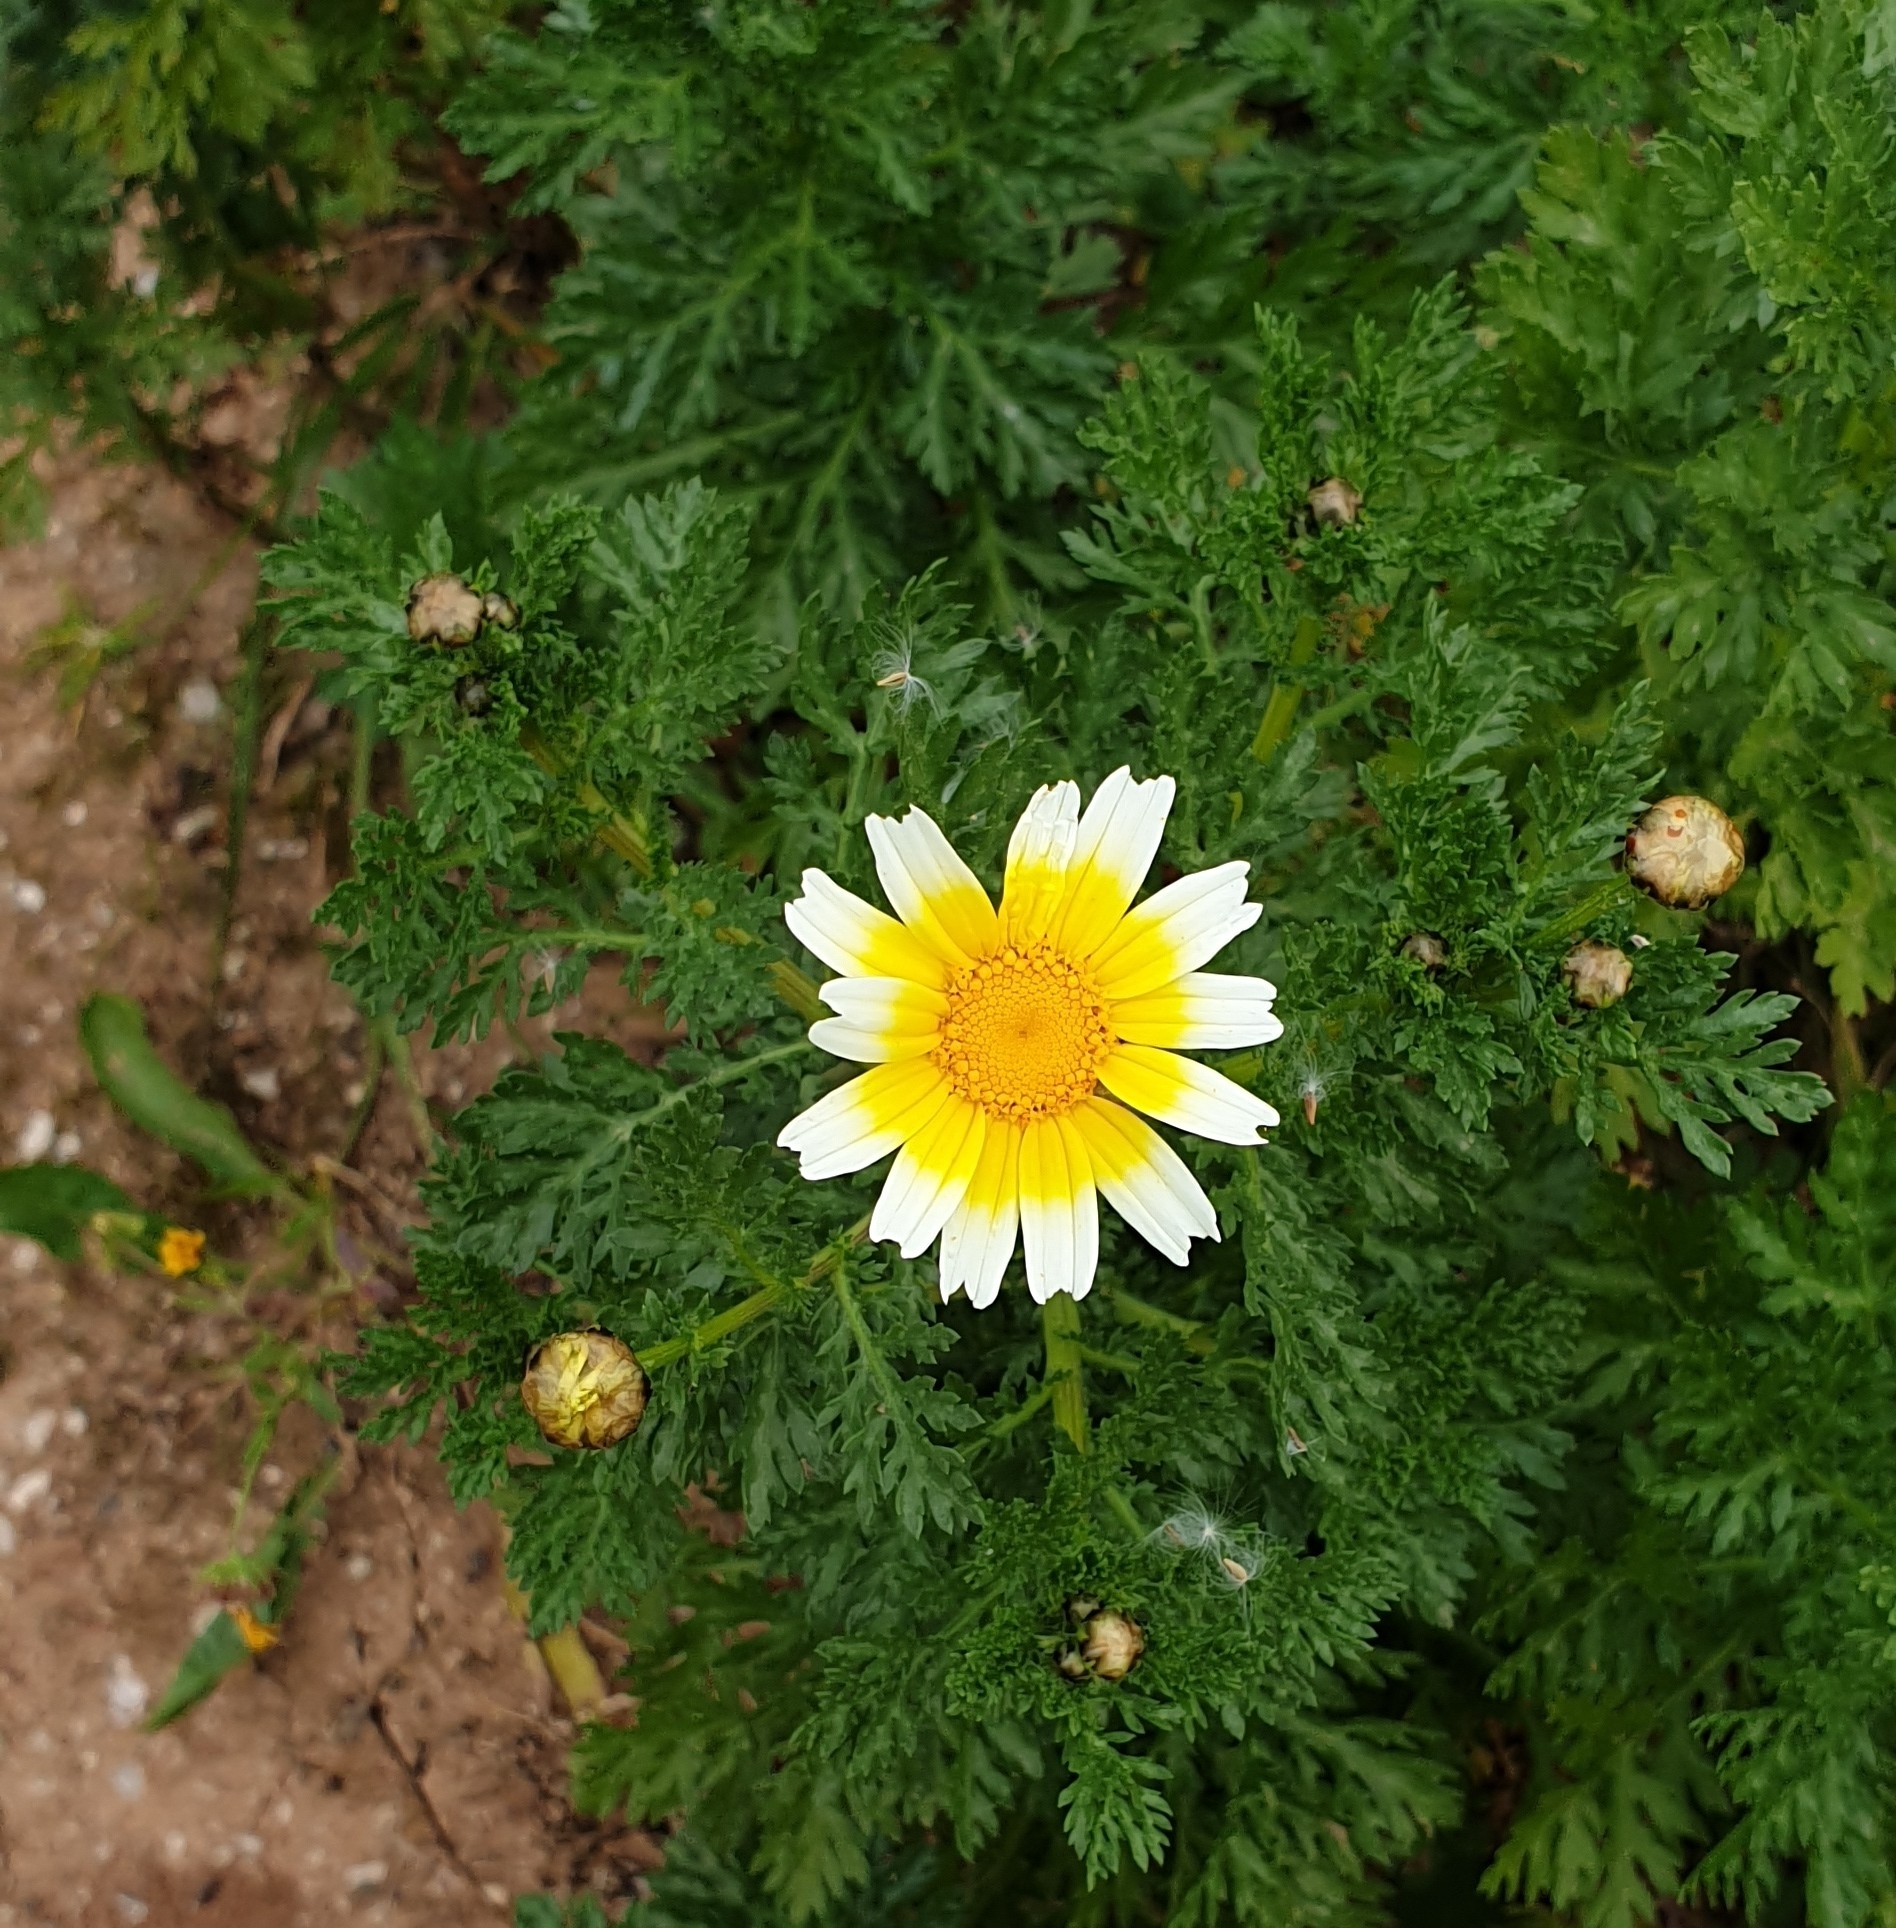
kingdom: Plantae
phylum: Tracheophyta
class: Magnoliopsida
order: Asterales
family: Asteraceae
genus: Glebionis
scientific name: Glebionis coronaria
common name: Crowndaisy
